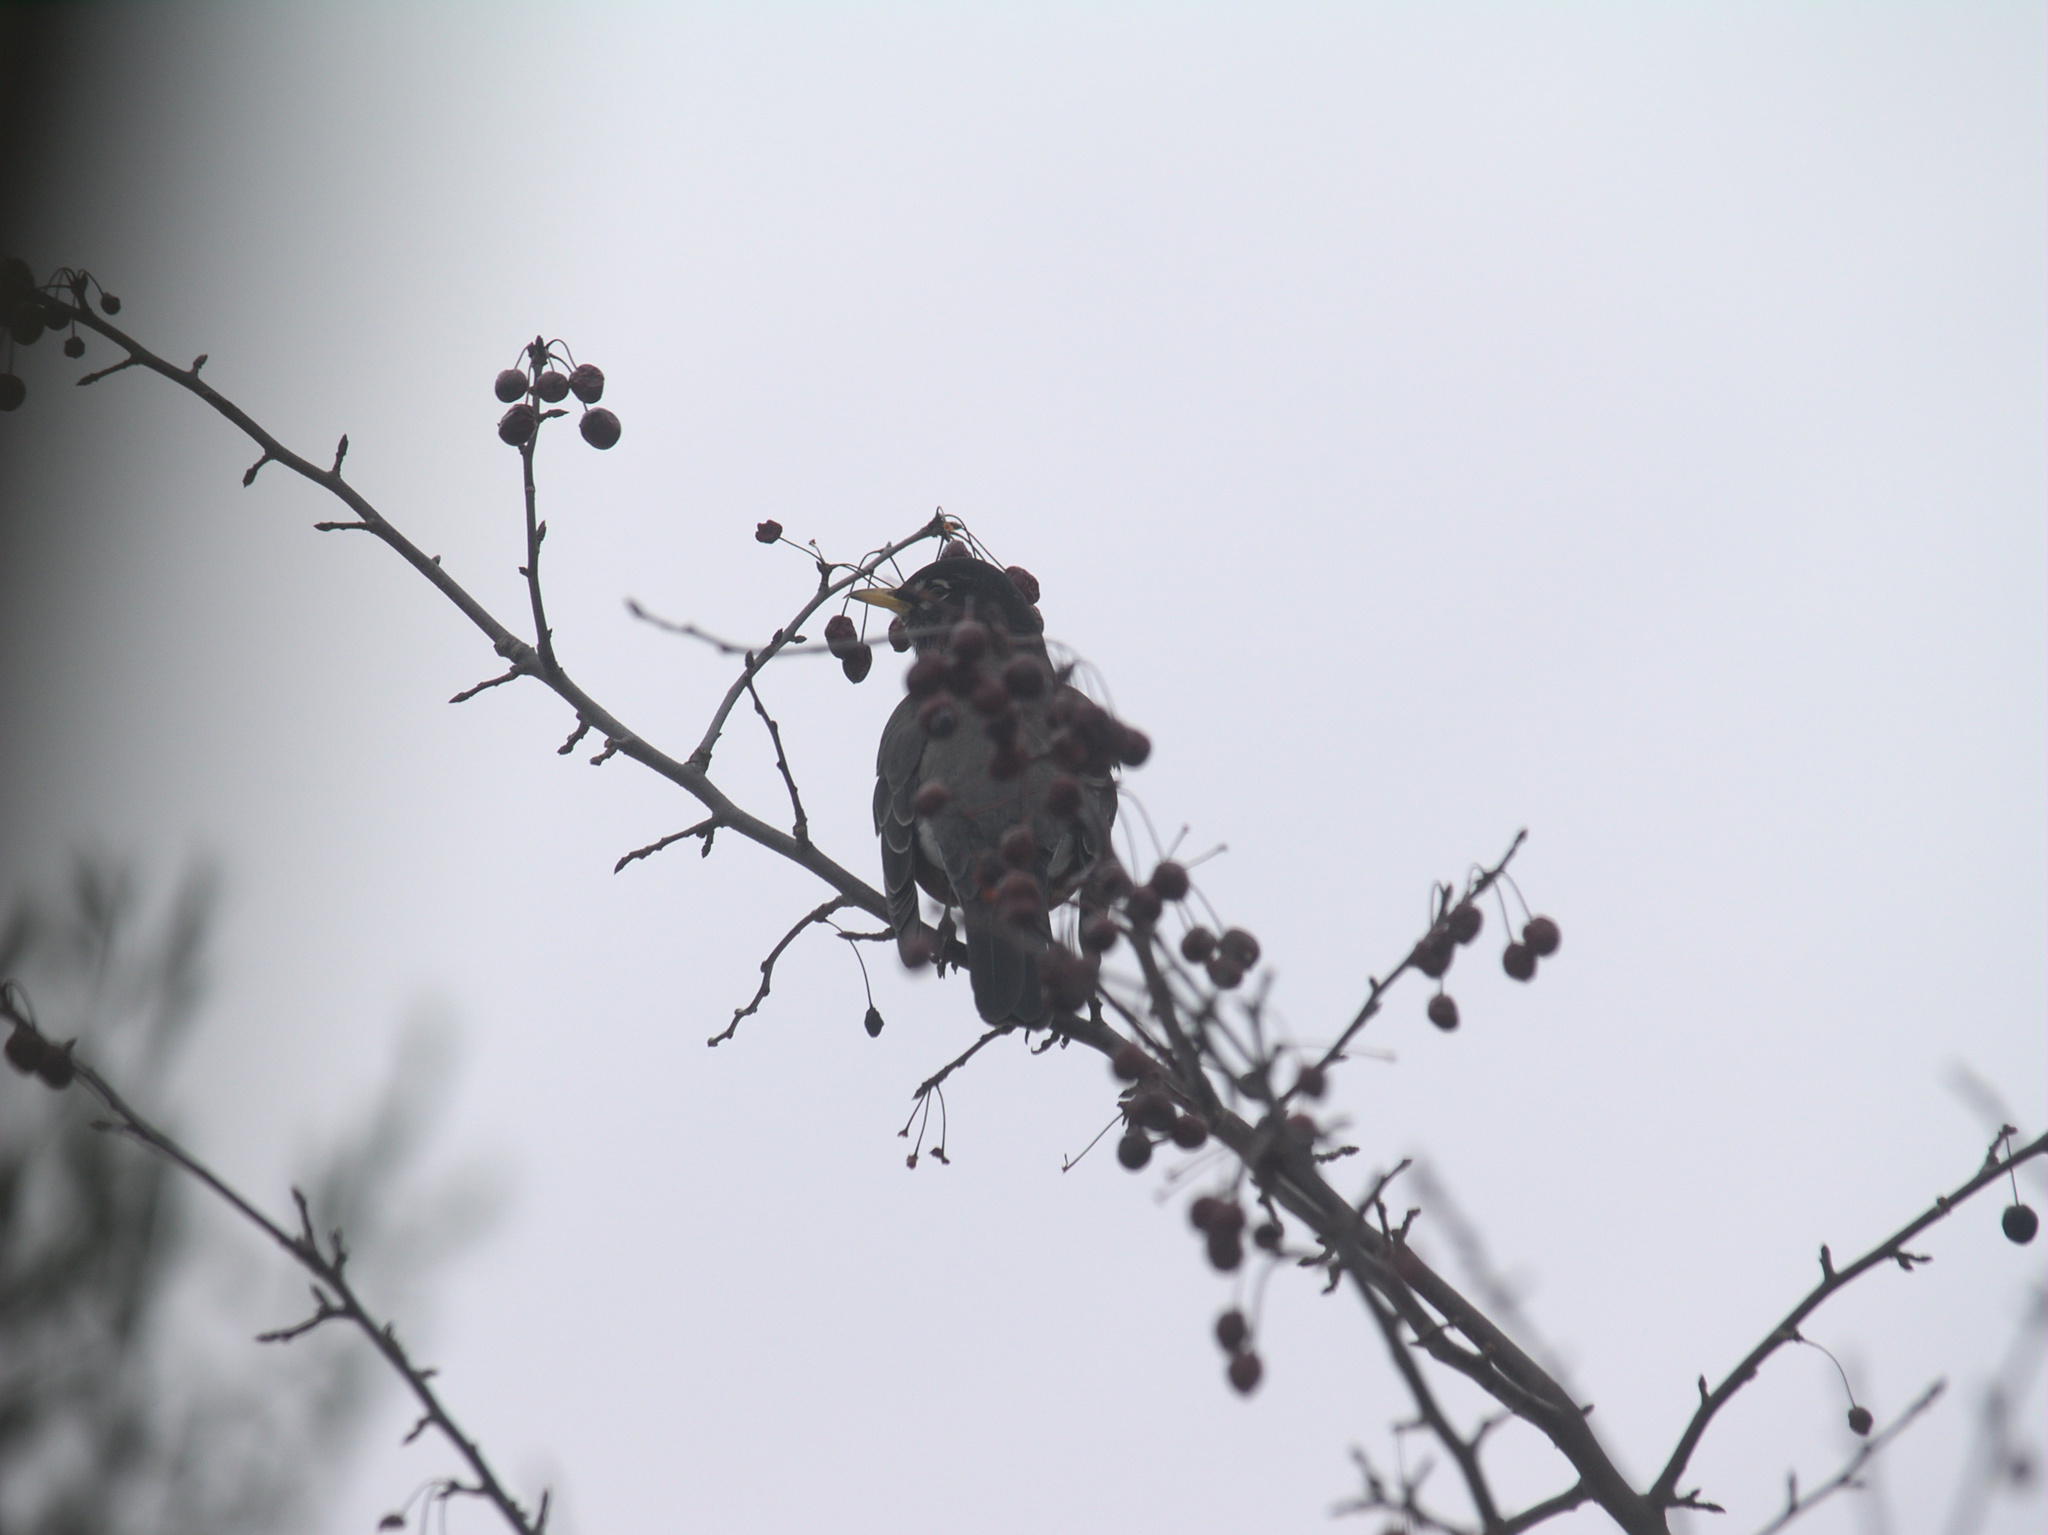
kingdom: Animalia
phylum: Chordata
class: Aves
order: Passeriformes
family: Turdidae
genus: Turdus
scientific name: Turdus migratorius
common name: American robin
